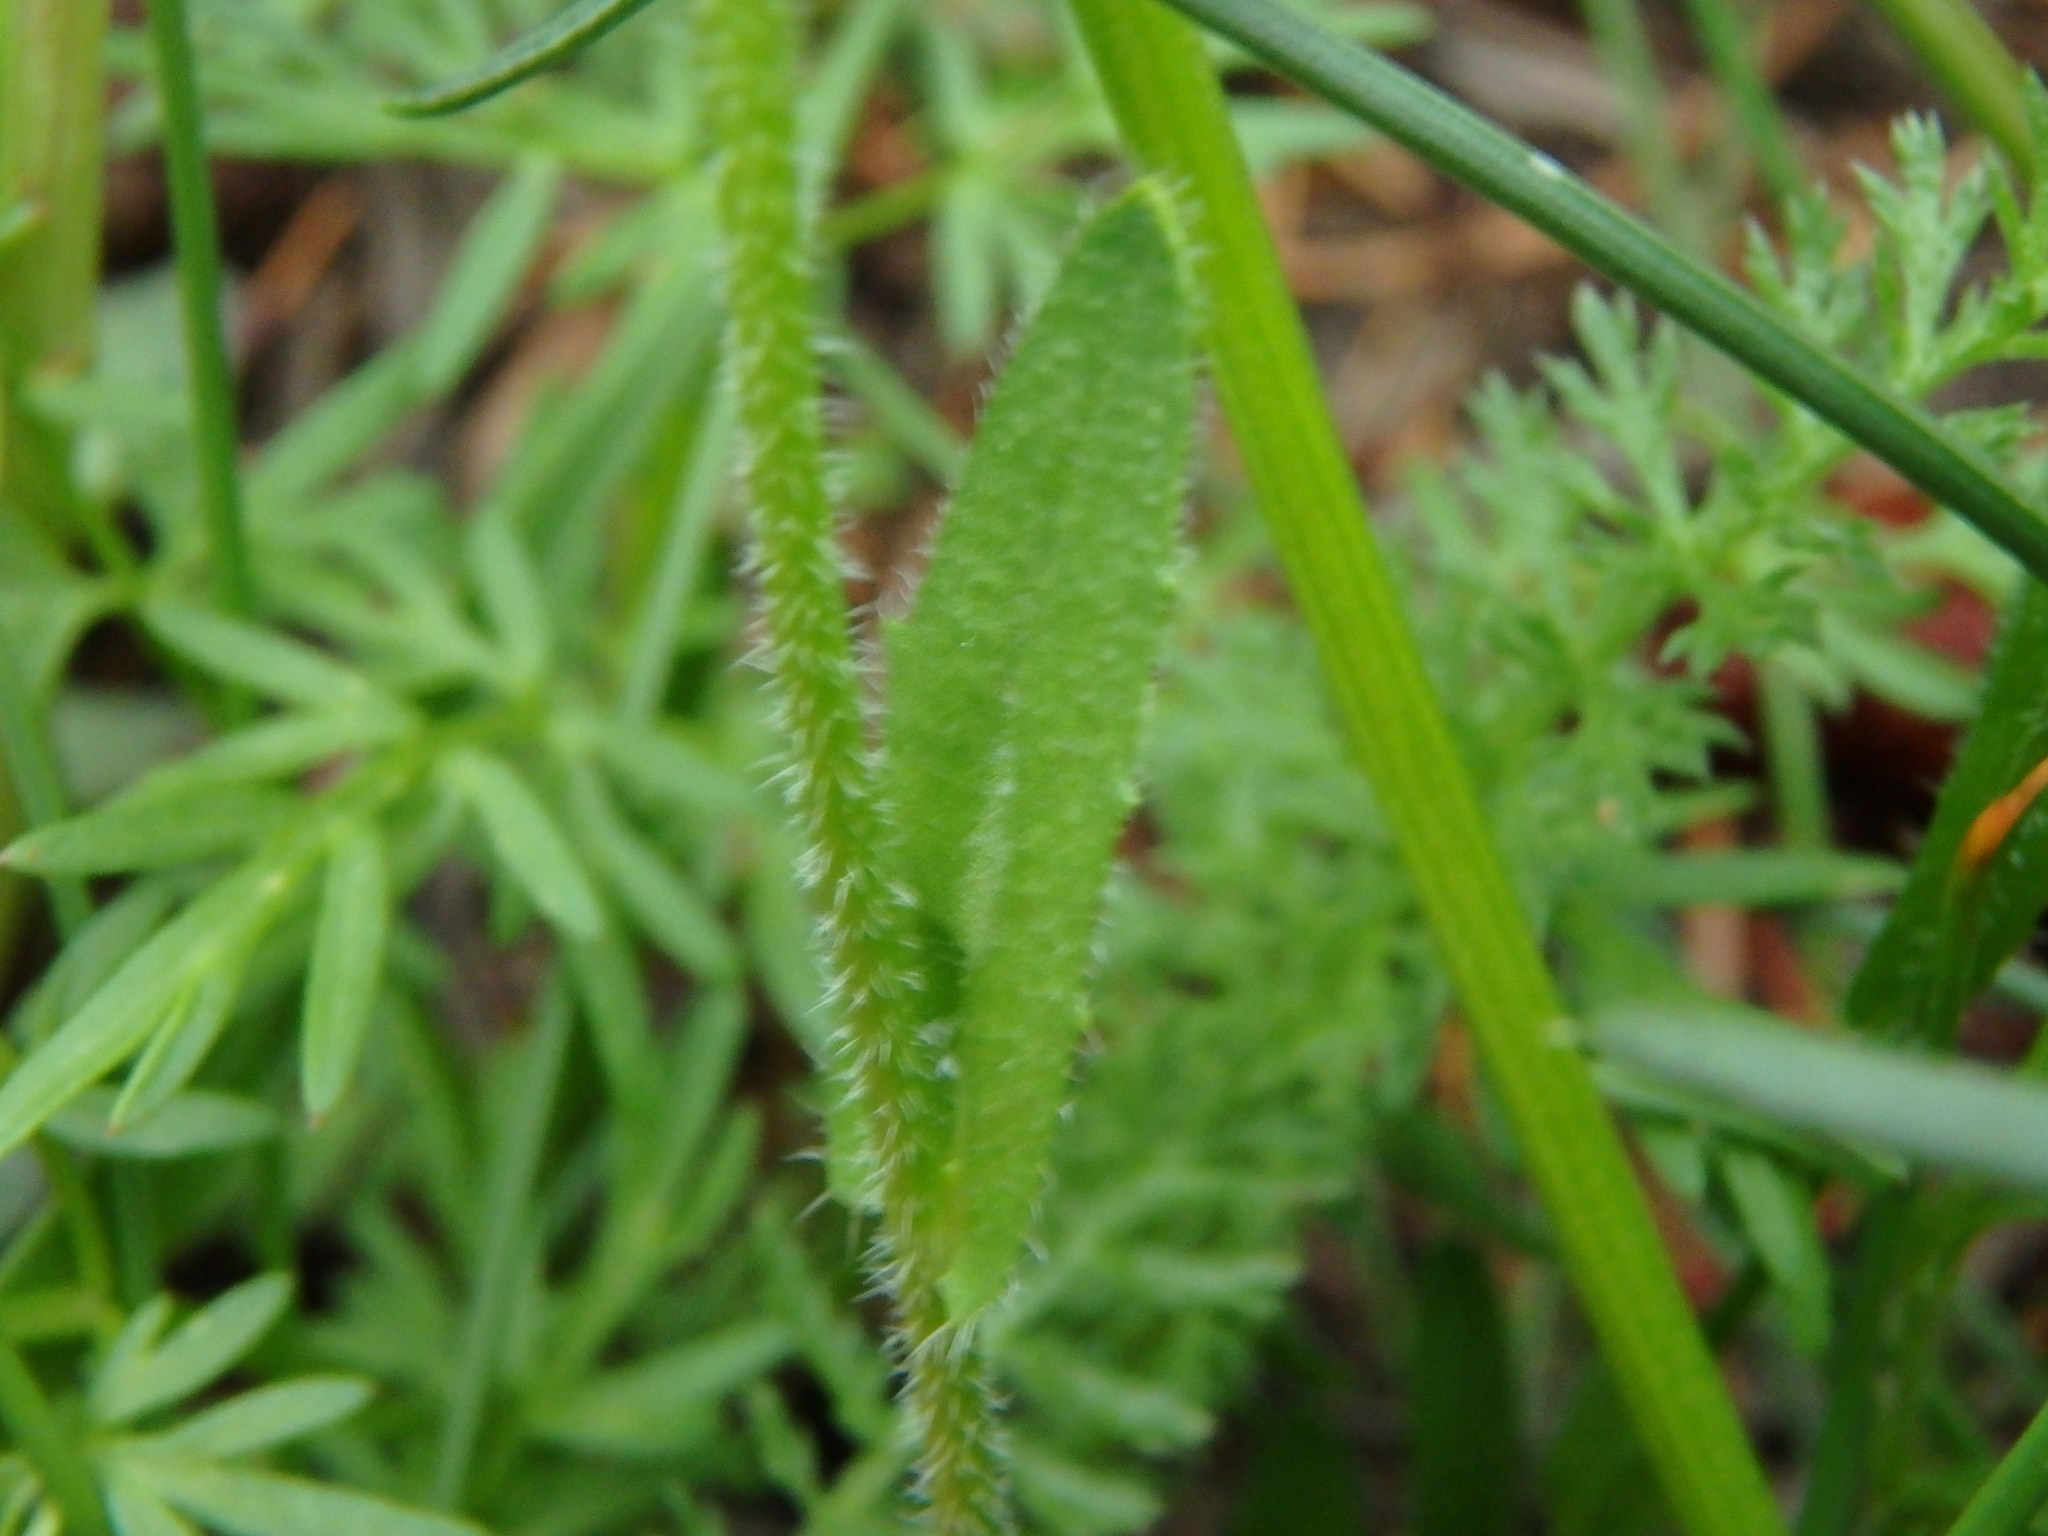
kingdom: Plantae
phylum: Tracheophyta
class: Magnoliopsida
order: Brassicales
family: Brassicaceae
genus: Arabis
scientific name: Arabis hirsuta
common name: Hairy rock-cress
